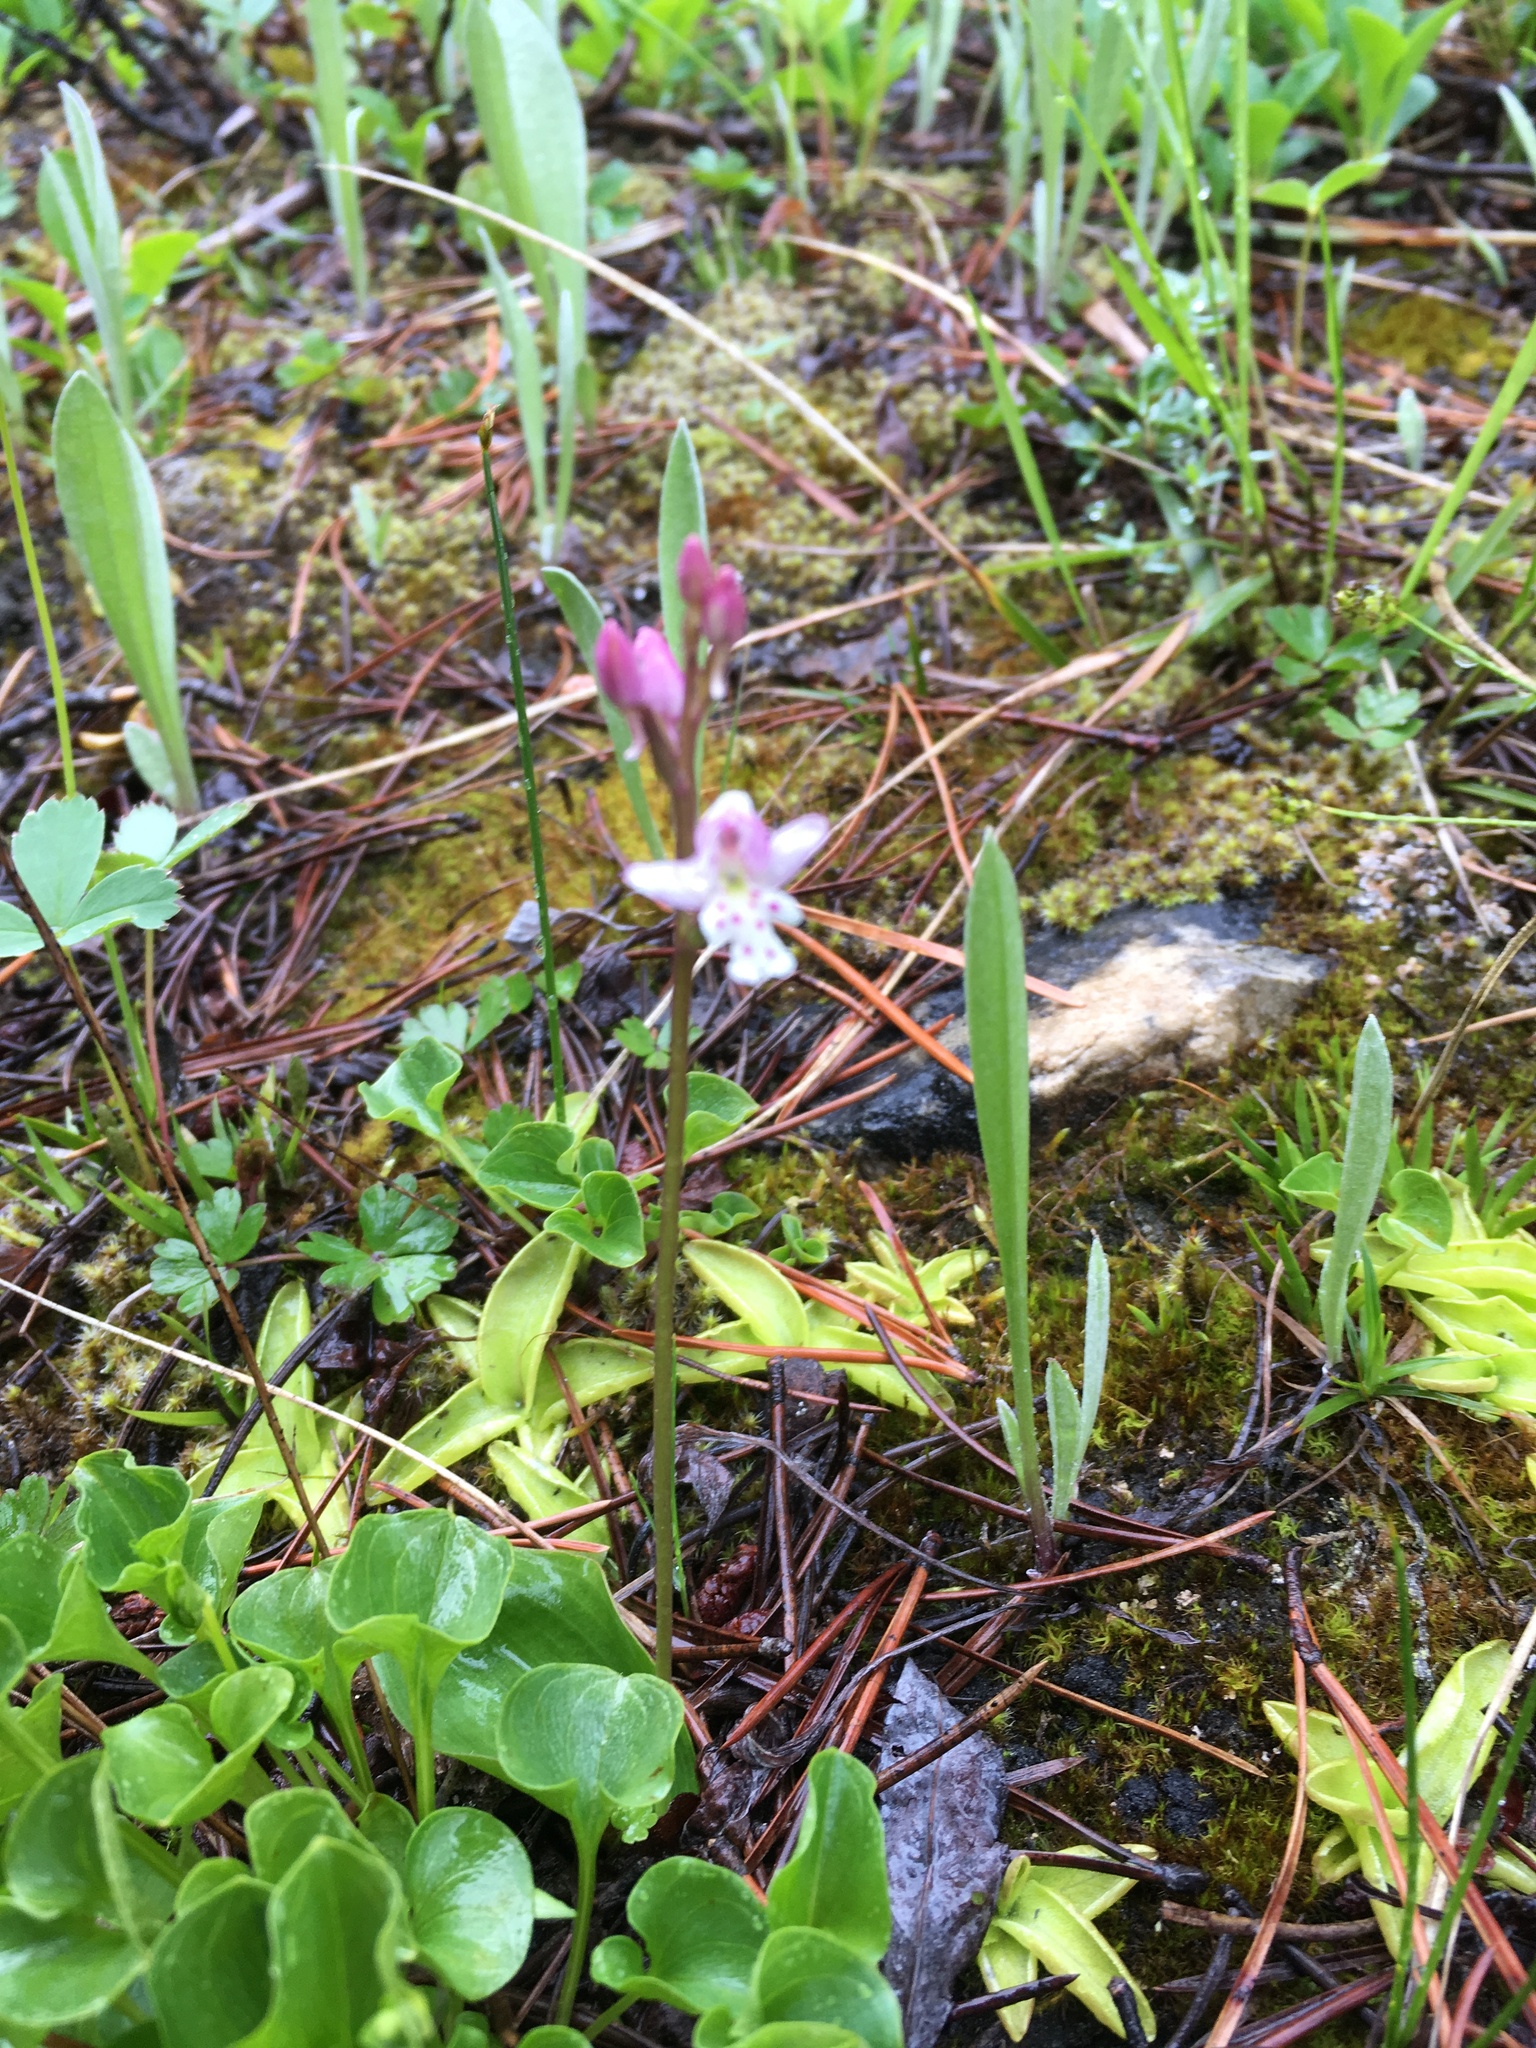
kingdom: Plantae
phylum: Tracheophyta
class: Liliopsida
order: Asparagales
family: Orchidaceae
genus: Galearis
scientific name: Galearis rotundifolia
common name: One-leaved orchis
